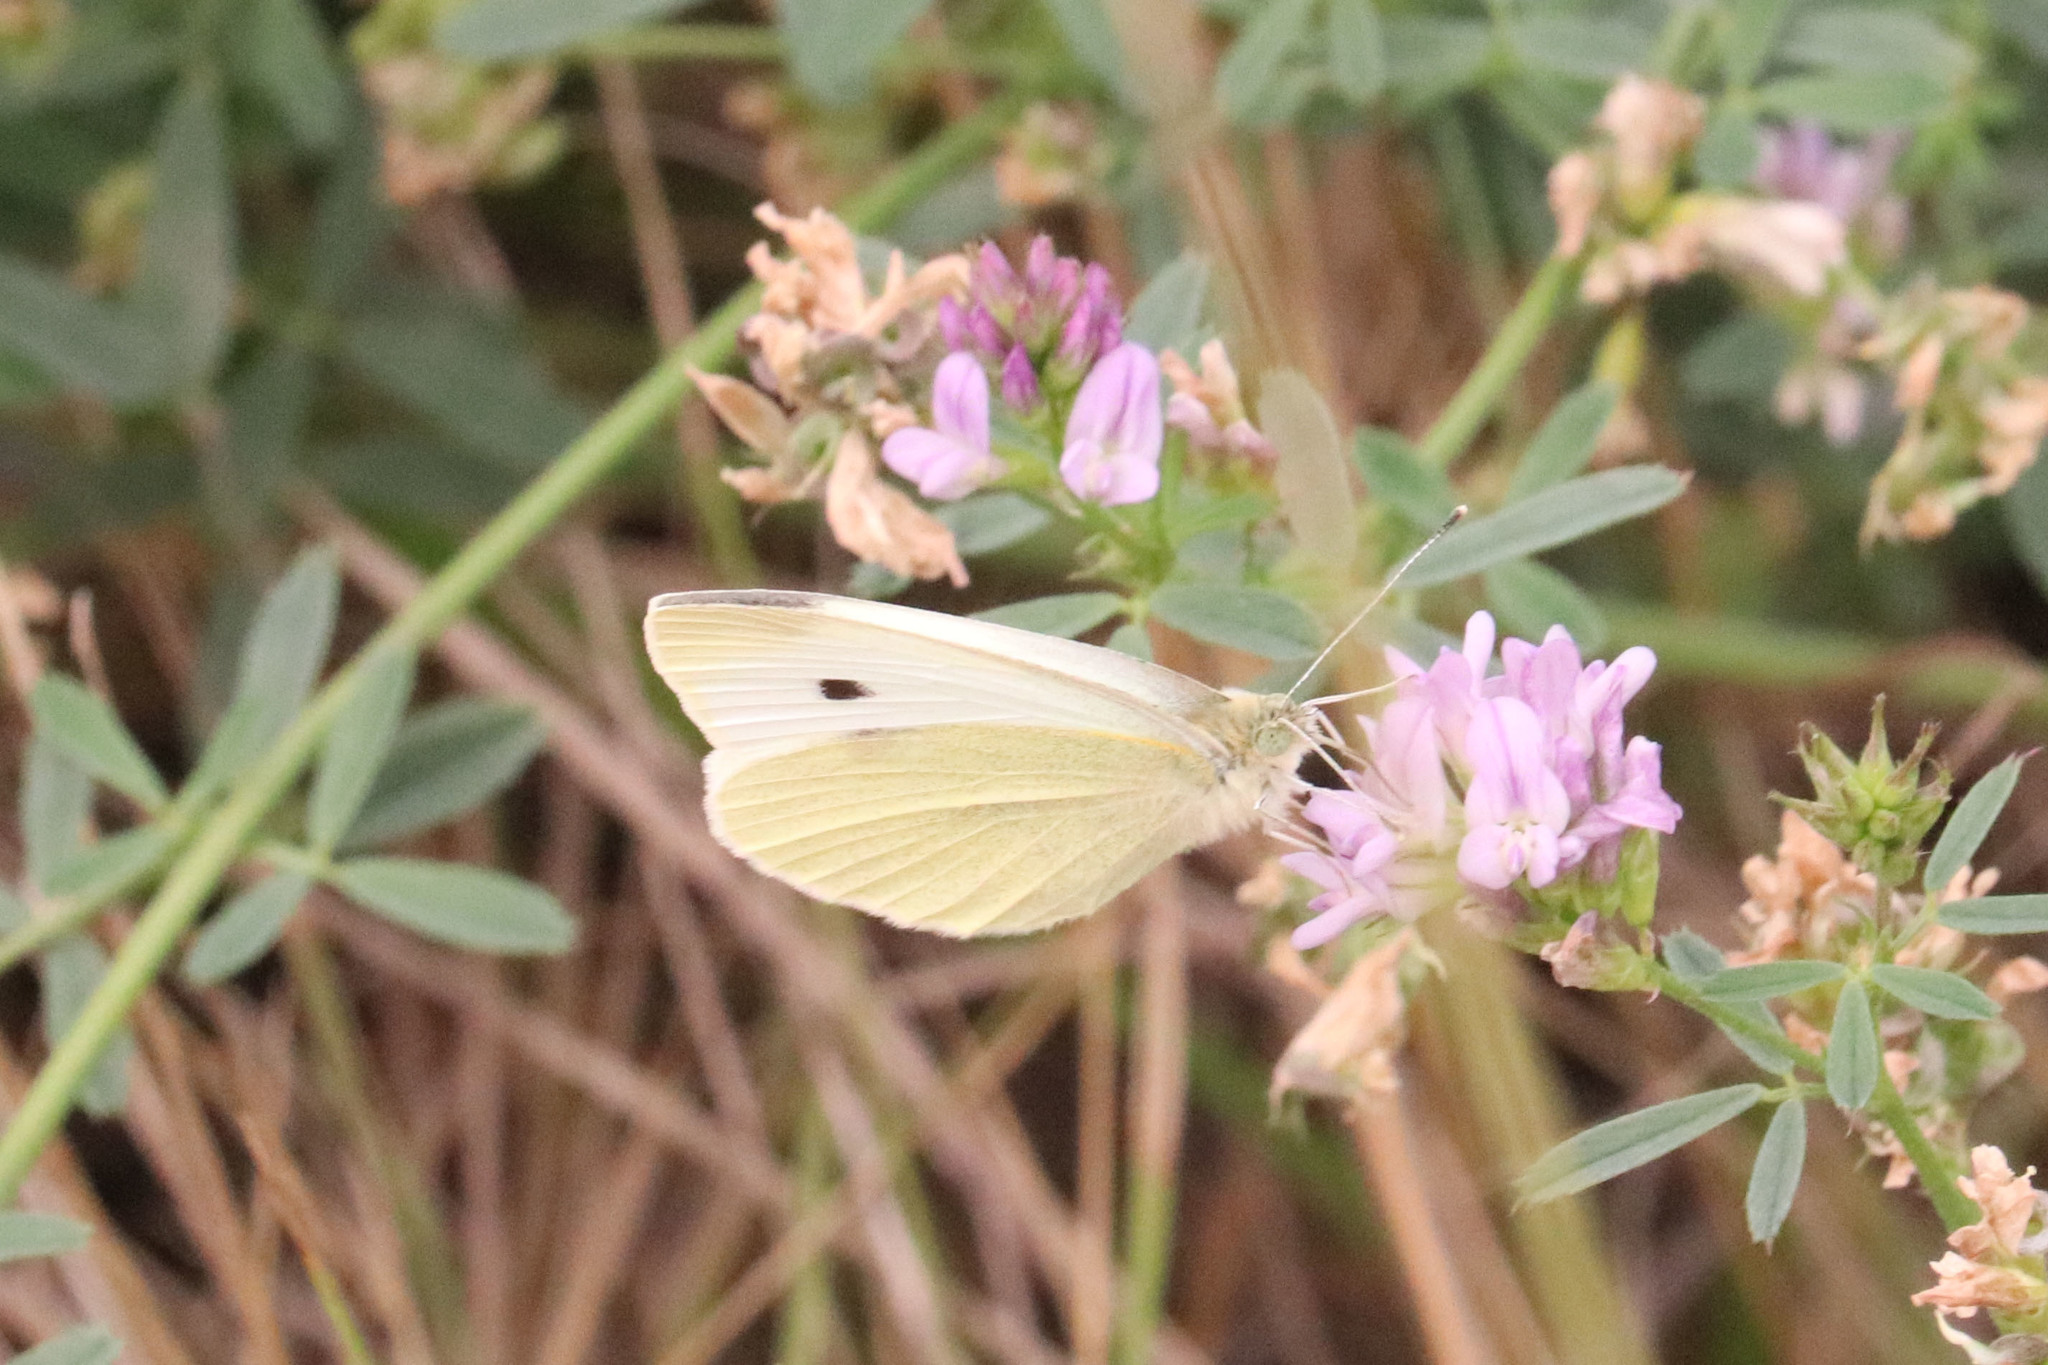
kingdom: Animalia
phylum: Arthropoda
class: Insecta
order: Lepidoptera
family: Pieridae
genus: Pieris
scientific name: Pieris rapae
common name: Small white
